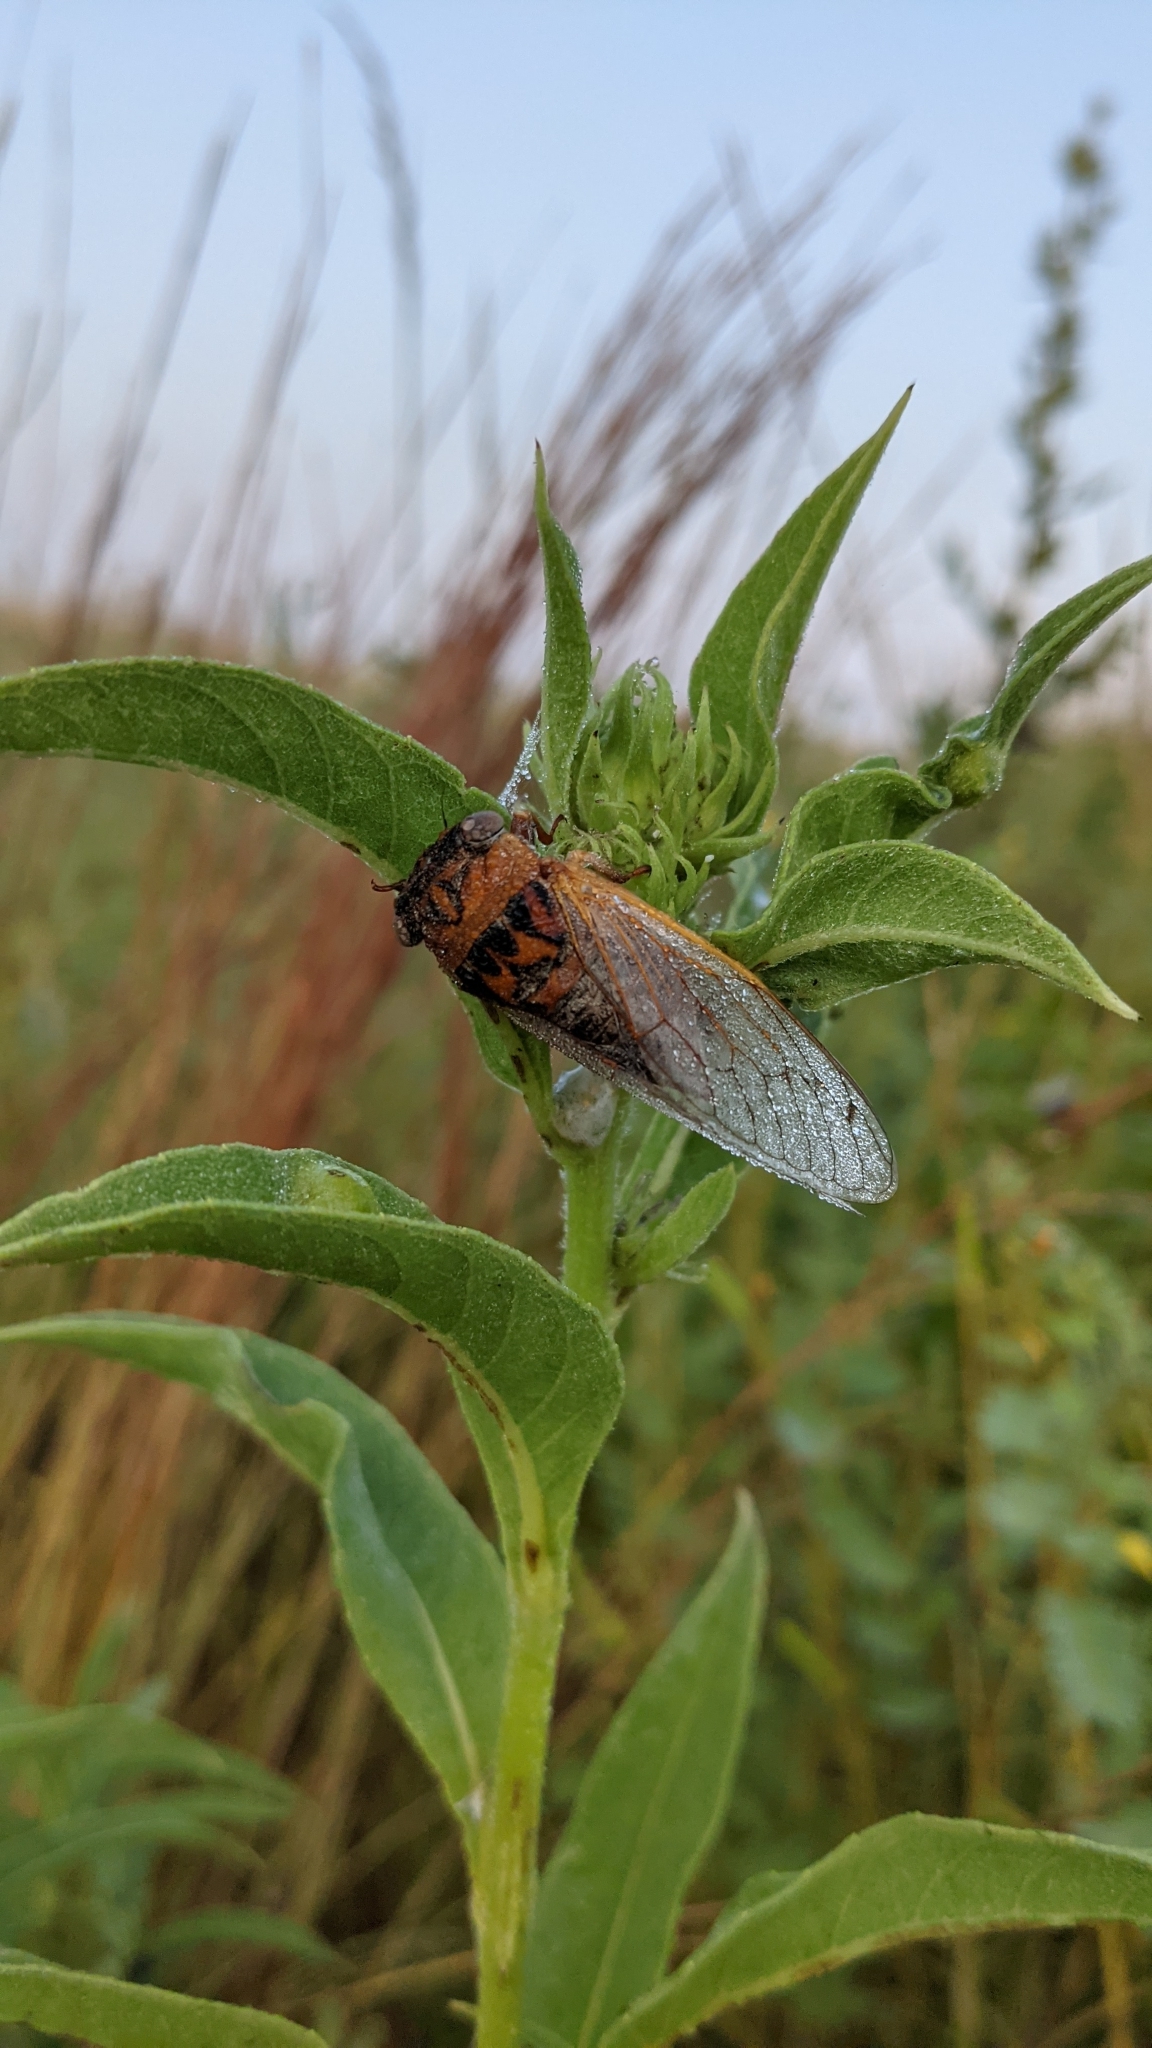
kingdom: Animalia
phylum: Arthropoda
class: Insecta
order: Hemiptera
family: Cicadidae
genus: Neotibicen
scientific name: Neotibicen aurifer
